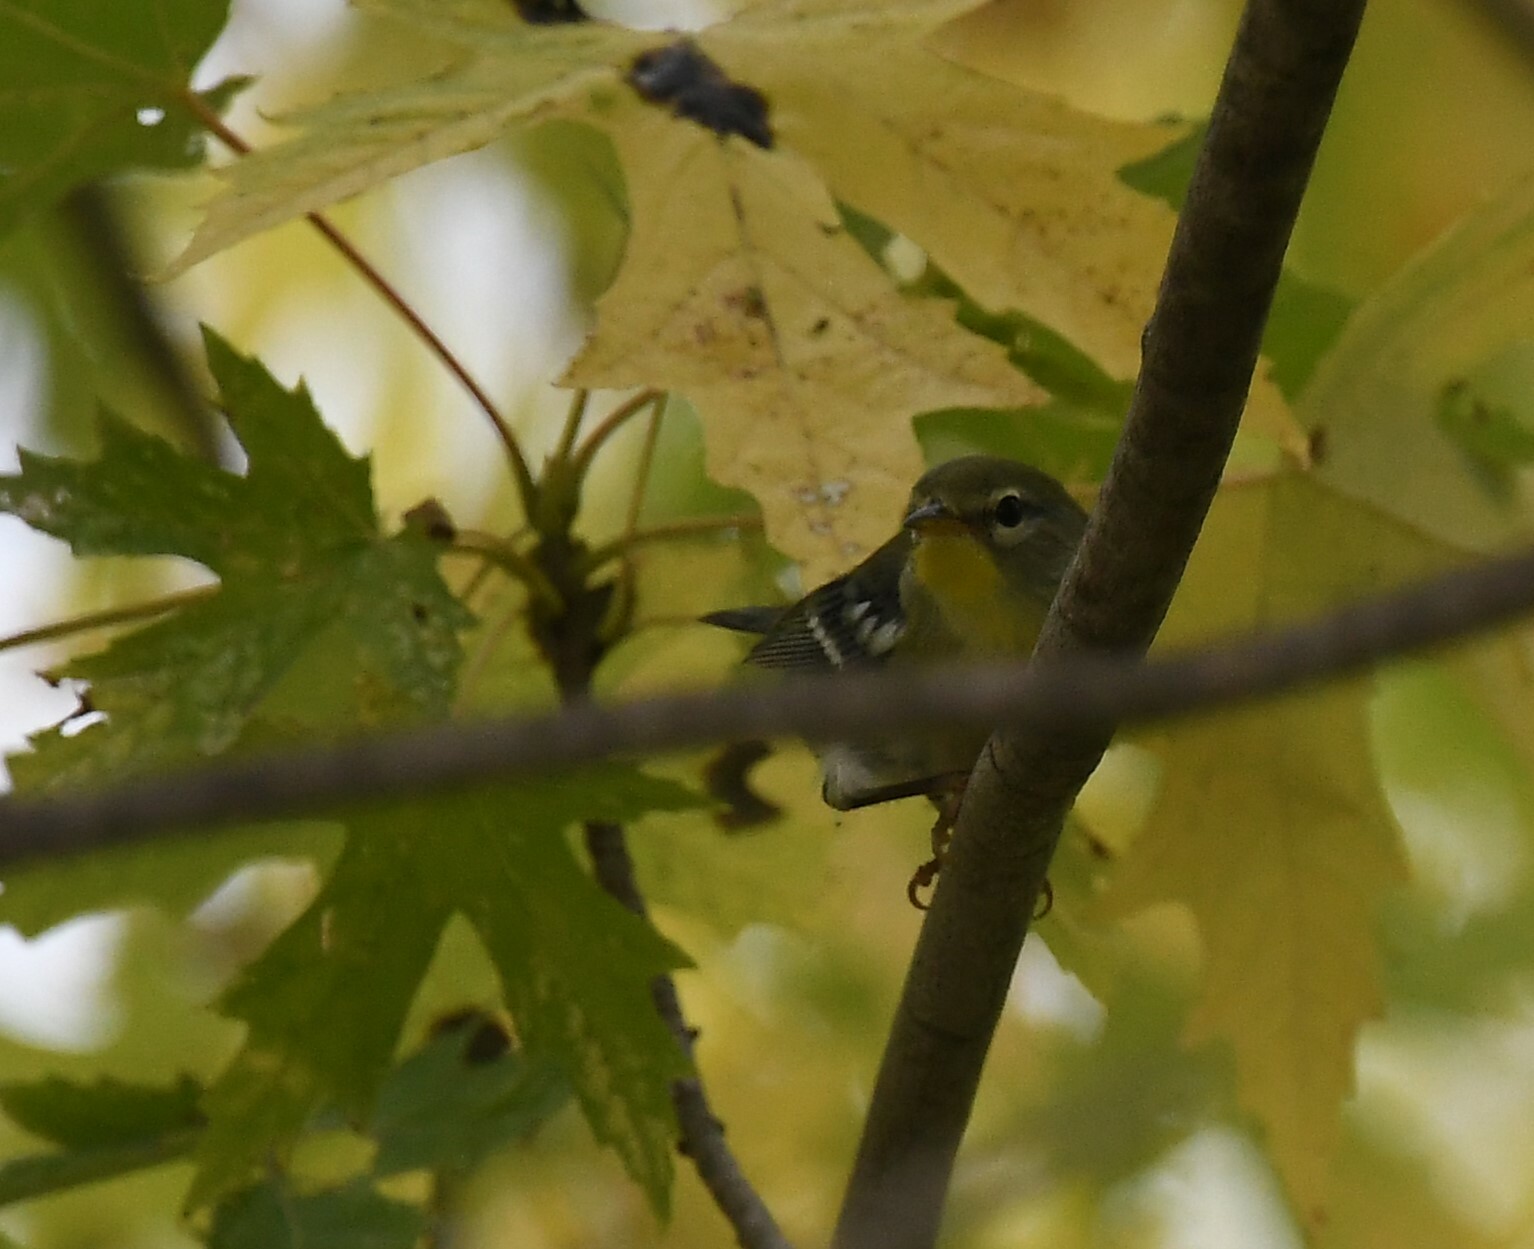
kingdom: Animalia
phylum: Chordata
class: Aves
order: Passeriformes
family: Parulidae
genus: Setophaga
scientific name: Setophaga americana
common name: Northern parula
